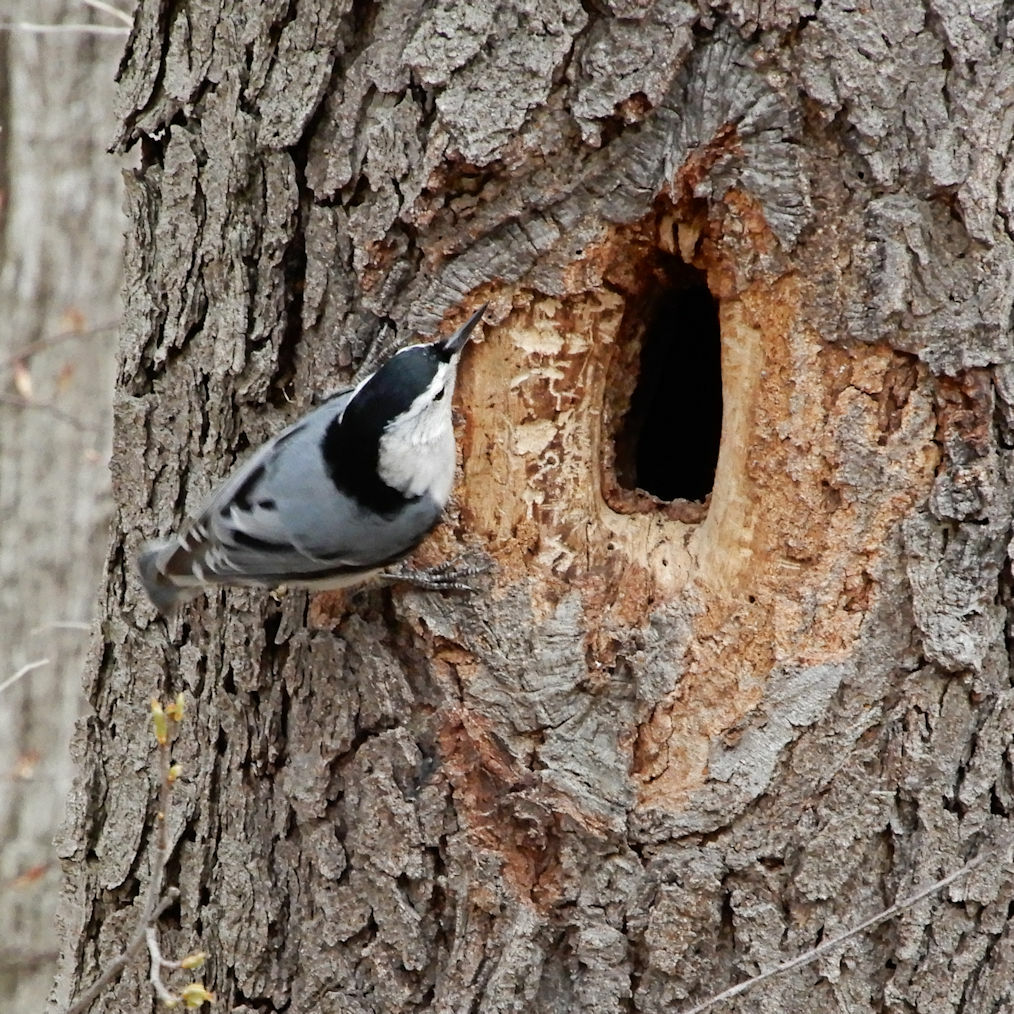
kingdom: Animalia
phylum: Chordata
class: Aves
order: Passeriformes
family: Sittidae
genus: Sitta
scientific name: Sitta carolinensis
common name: White-breasted nuthatch
